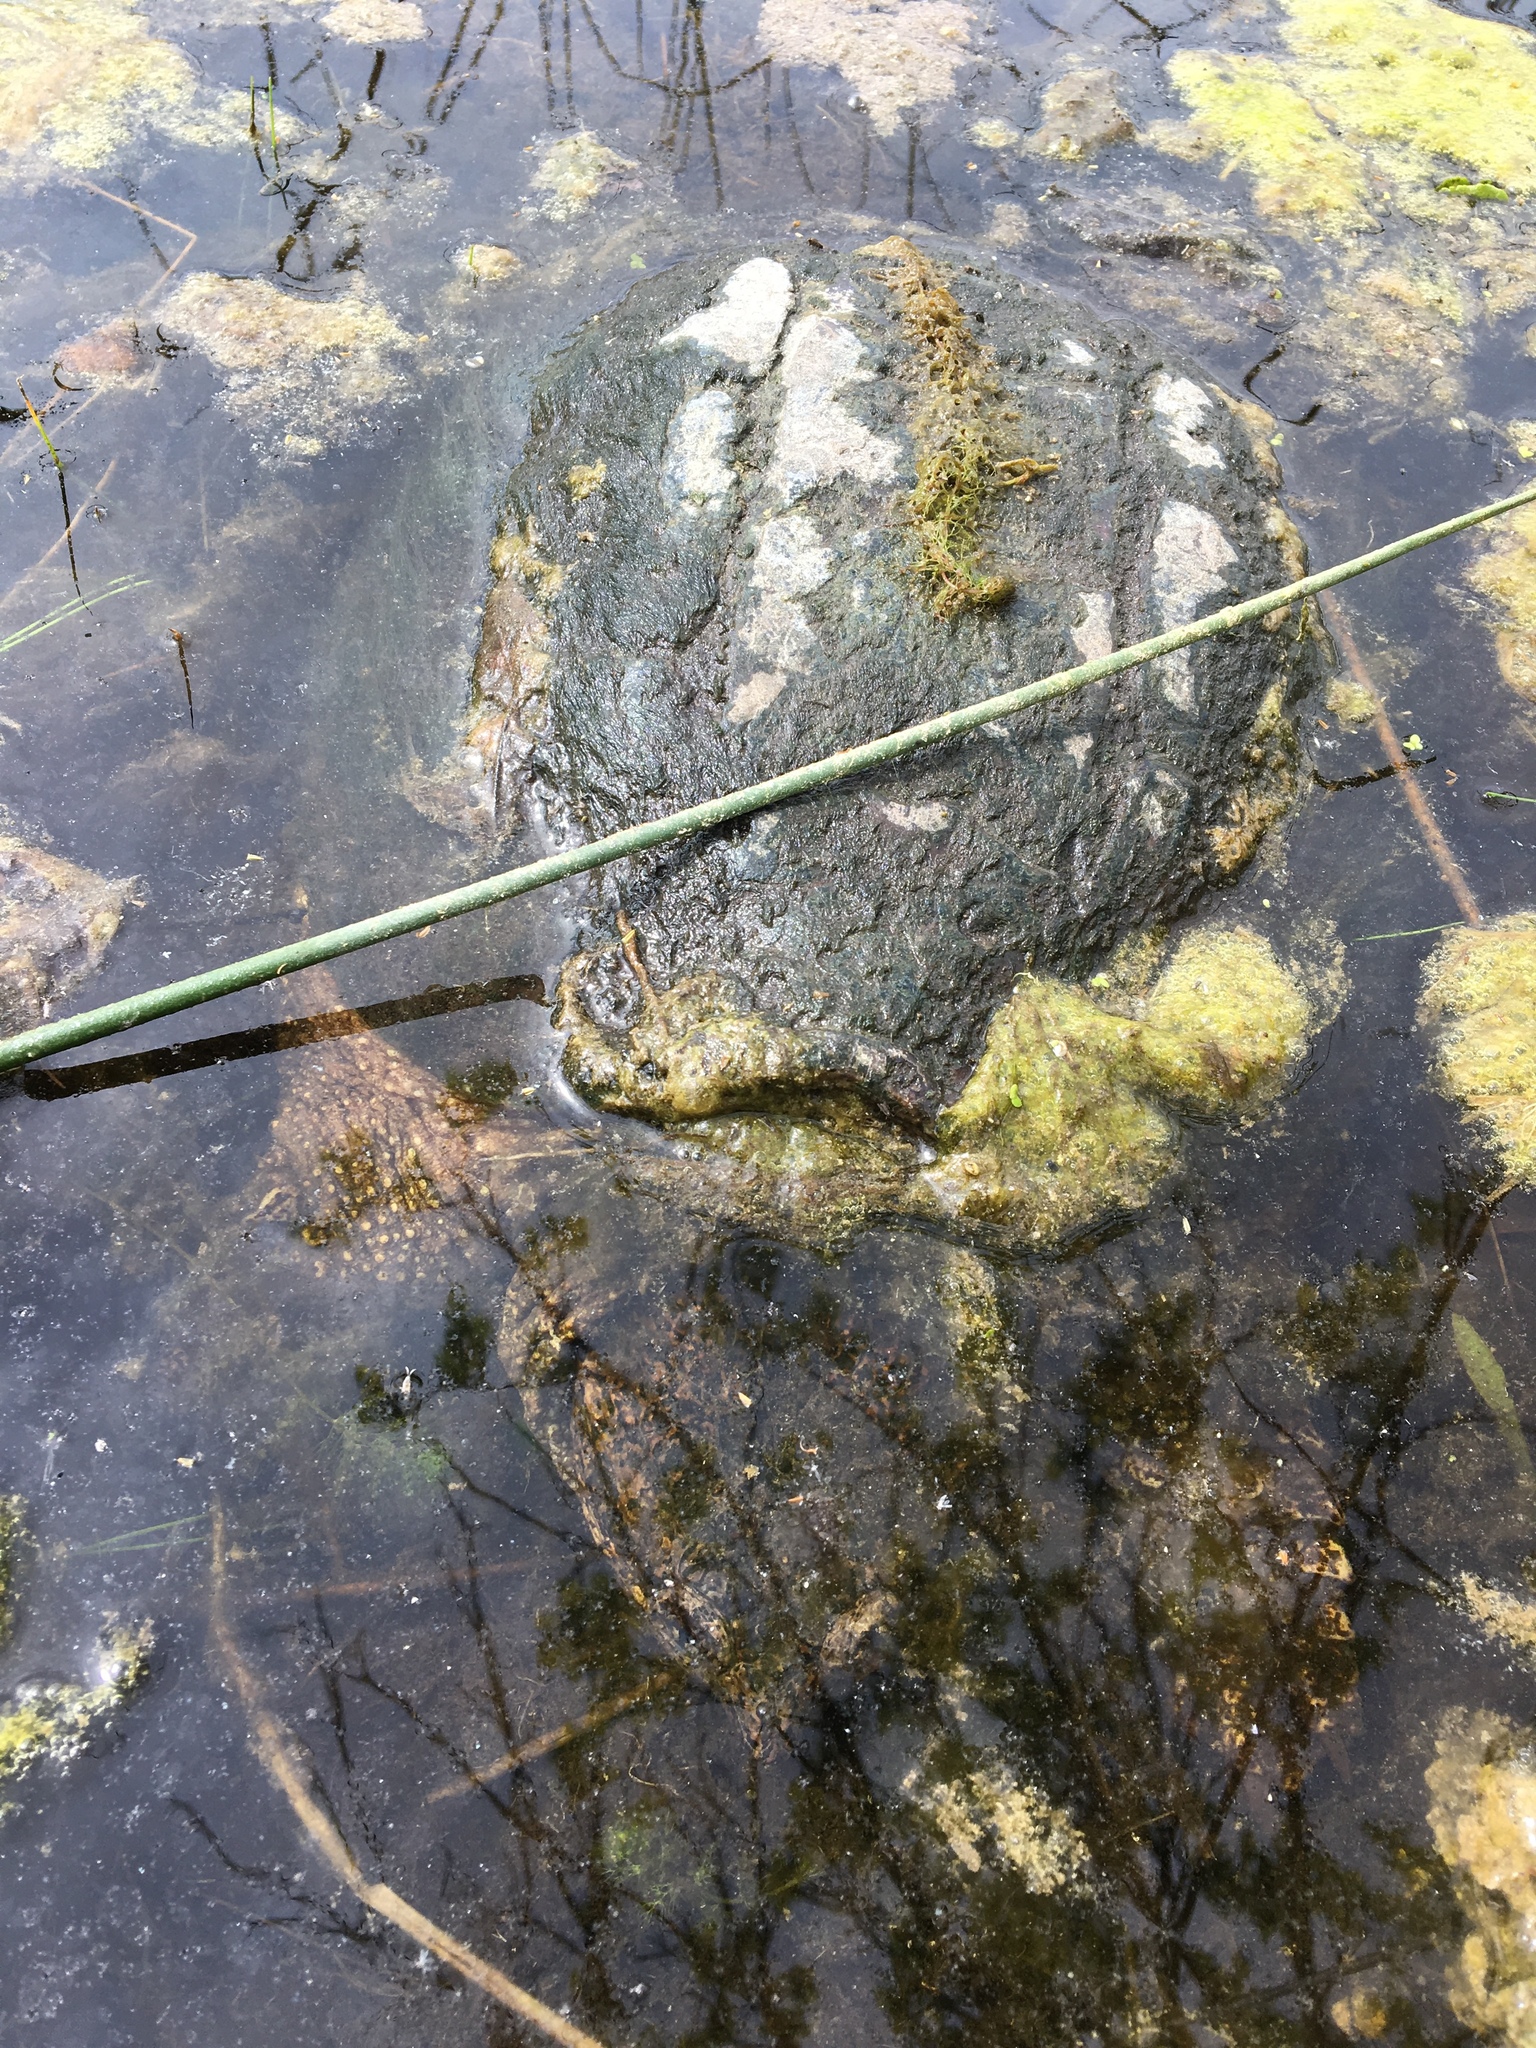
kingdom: Animalia
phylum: Chordata
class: Testudines
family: Chelydridae
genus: Chelydra
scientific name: Chelydra serpentina
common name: Common snapping turtle
